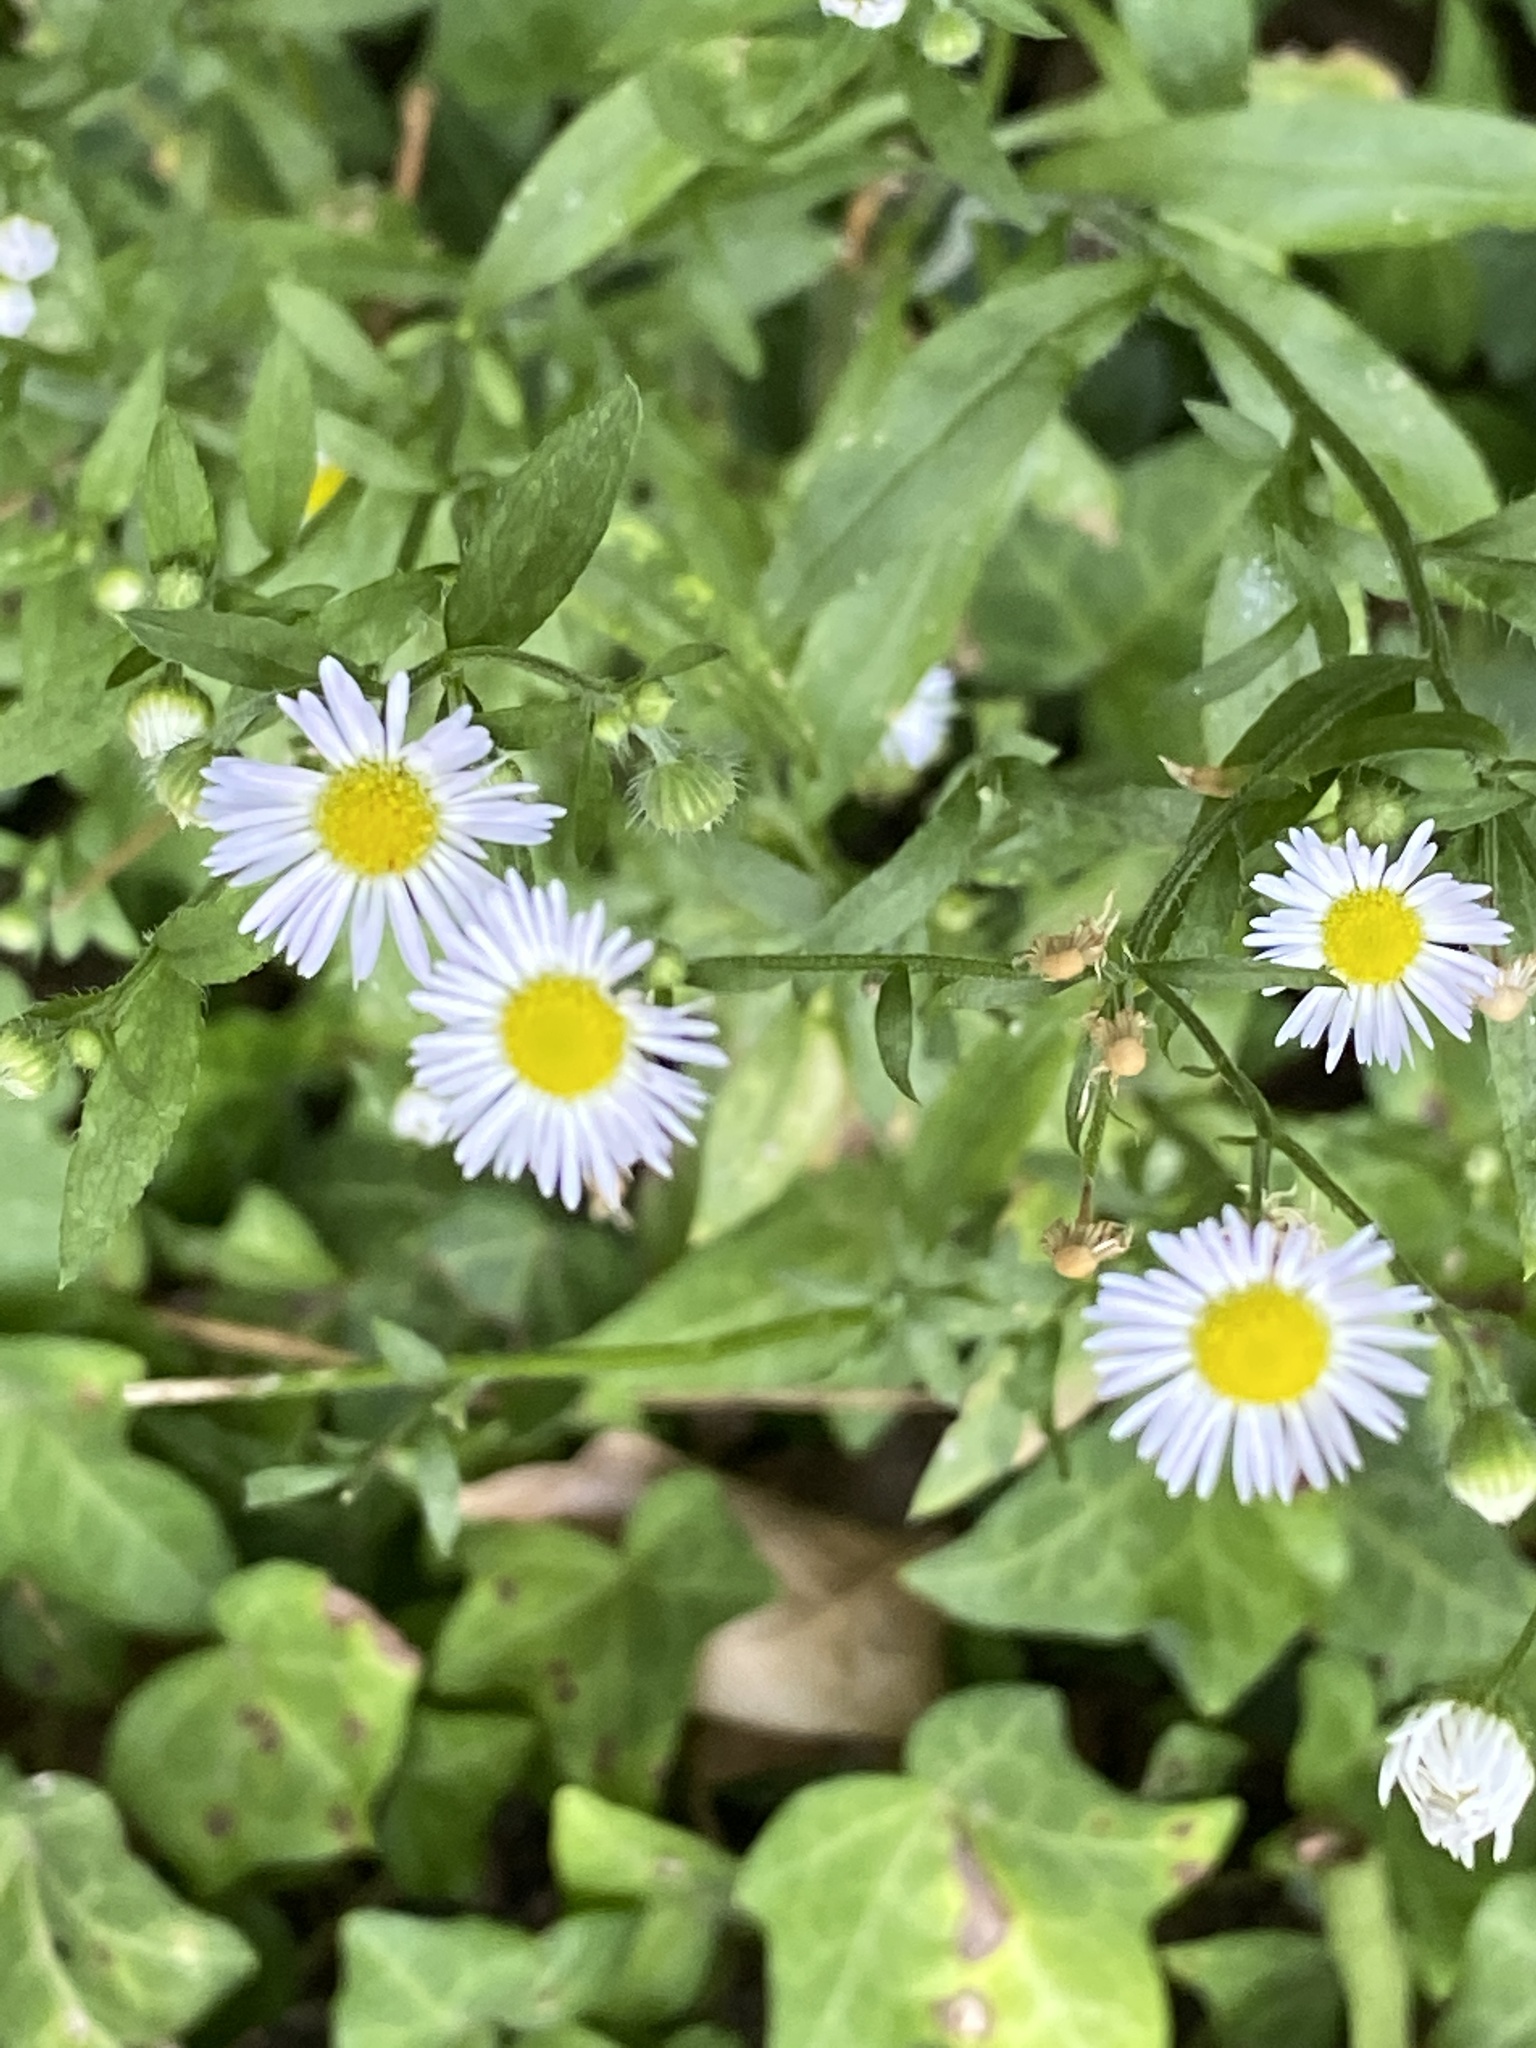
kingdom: Plantae
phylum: Tracheophyta
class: Magnoliopsida
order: Asterales
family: Asteraceae
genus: Erigeron
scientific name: Erigeron strigosus
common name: Common eastern fleabane
